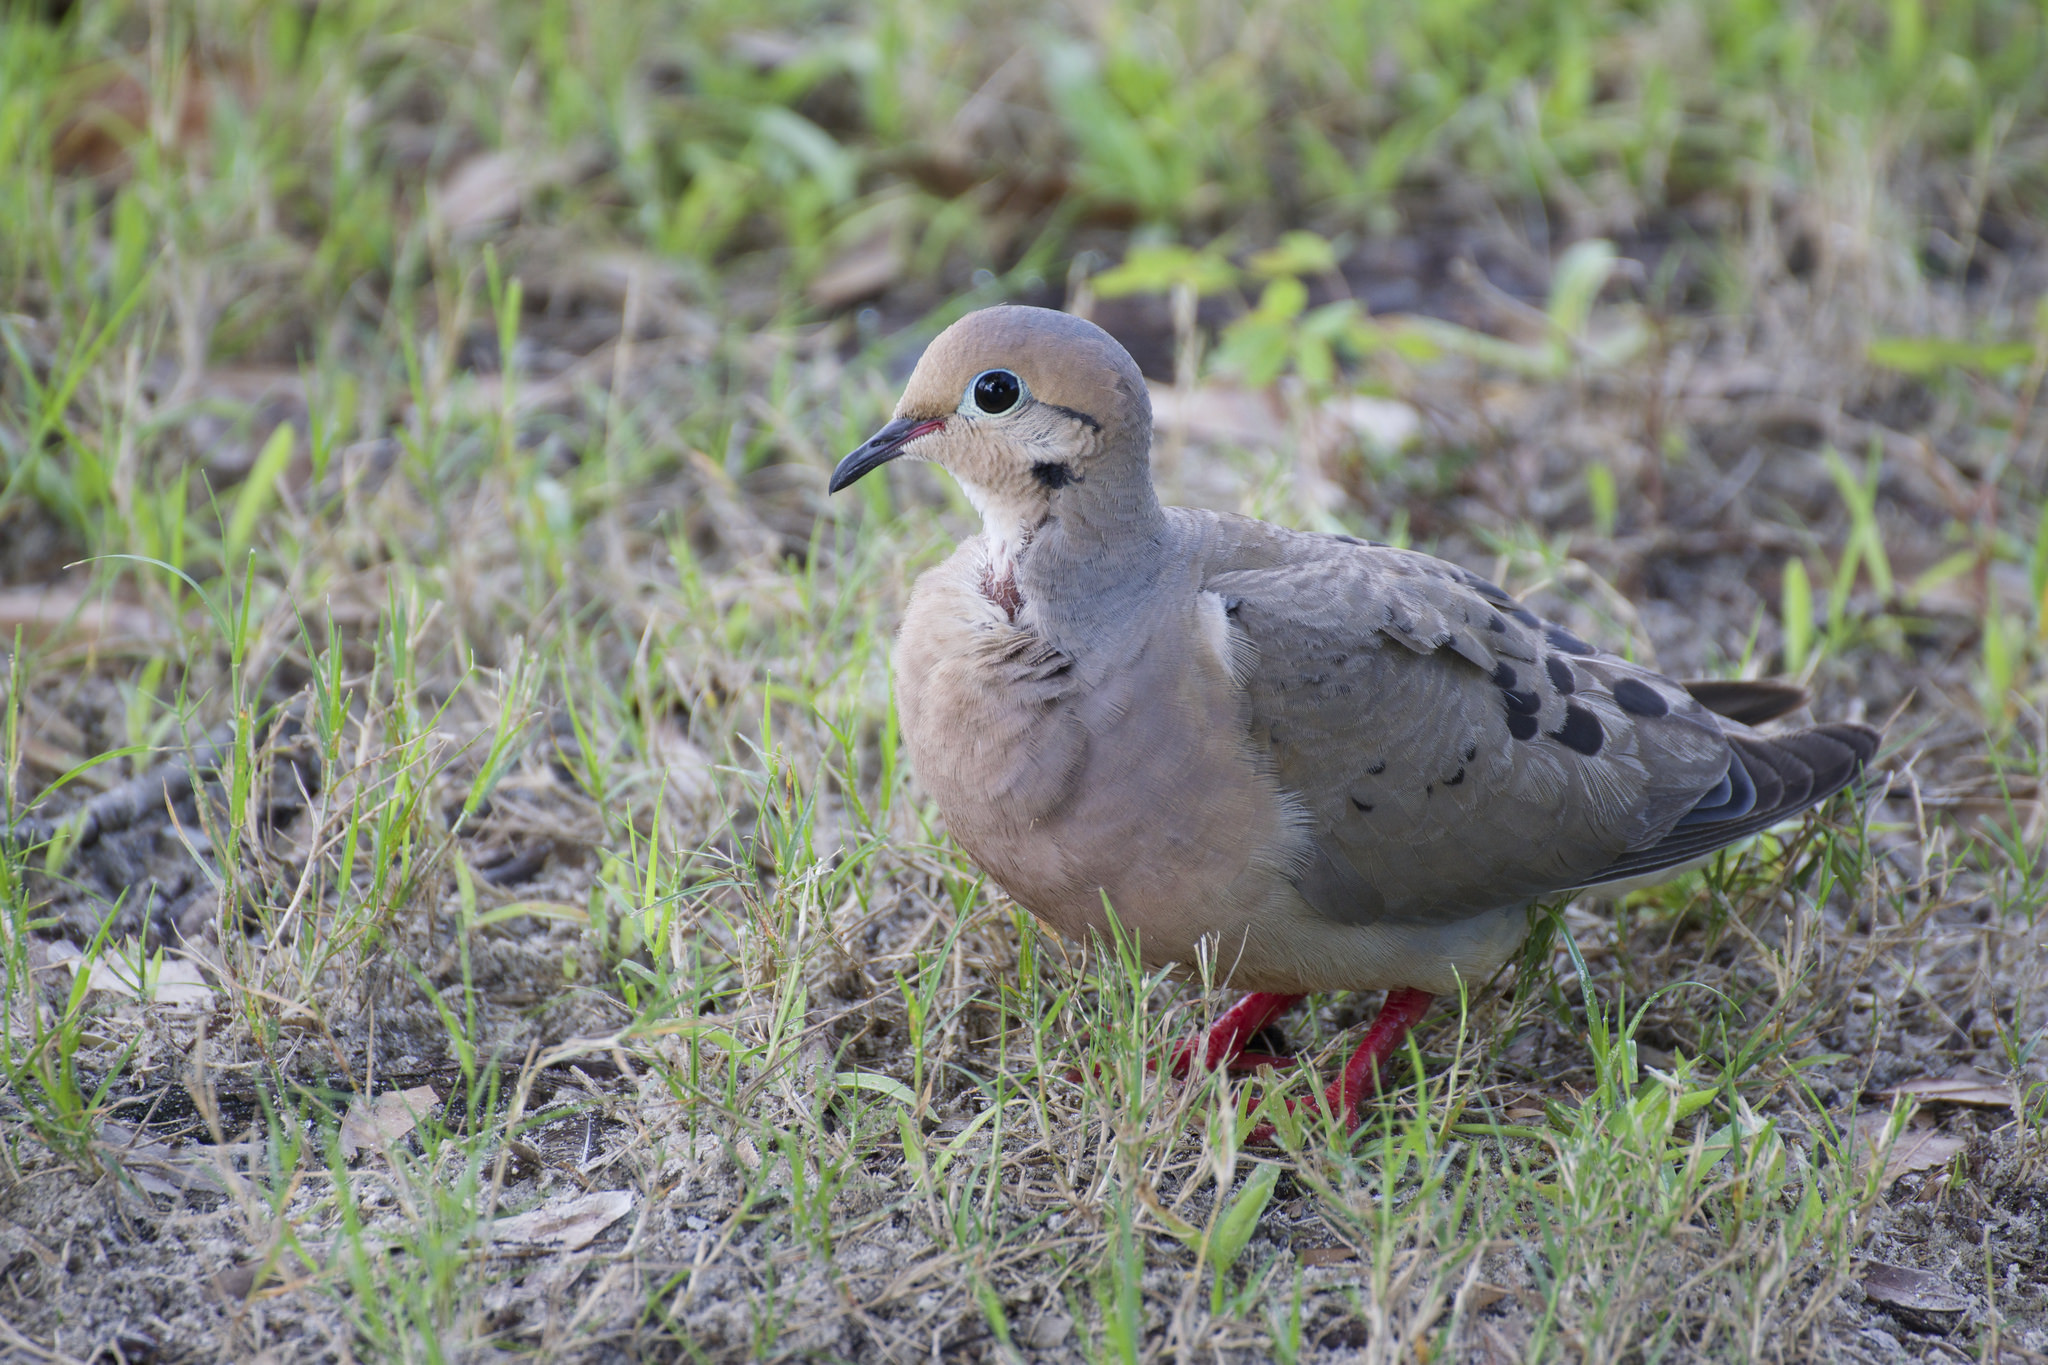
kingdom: Animalia
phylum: Chordata
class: Aves
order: Columbiformes
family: Columbidae
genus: Zenaida
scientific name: Zenaida macroura
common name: Mourning dove
